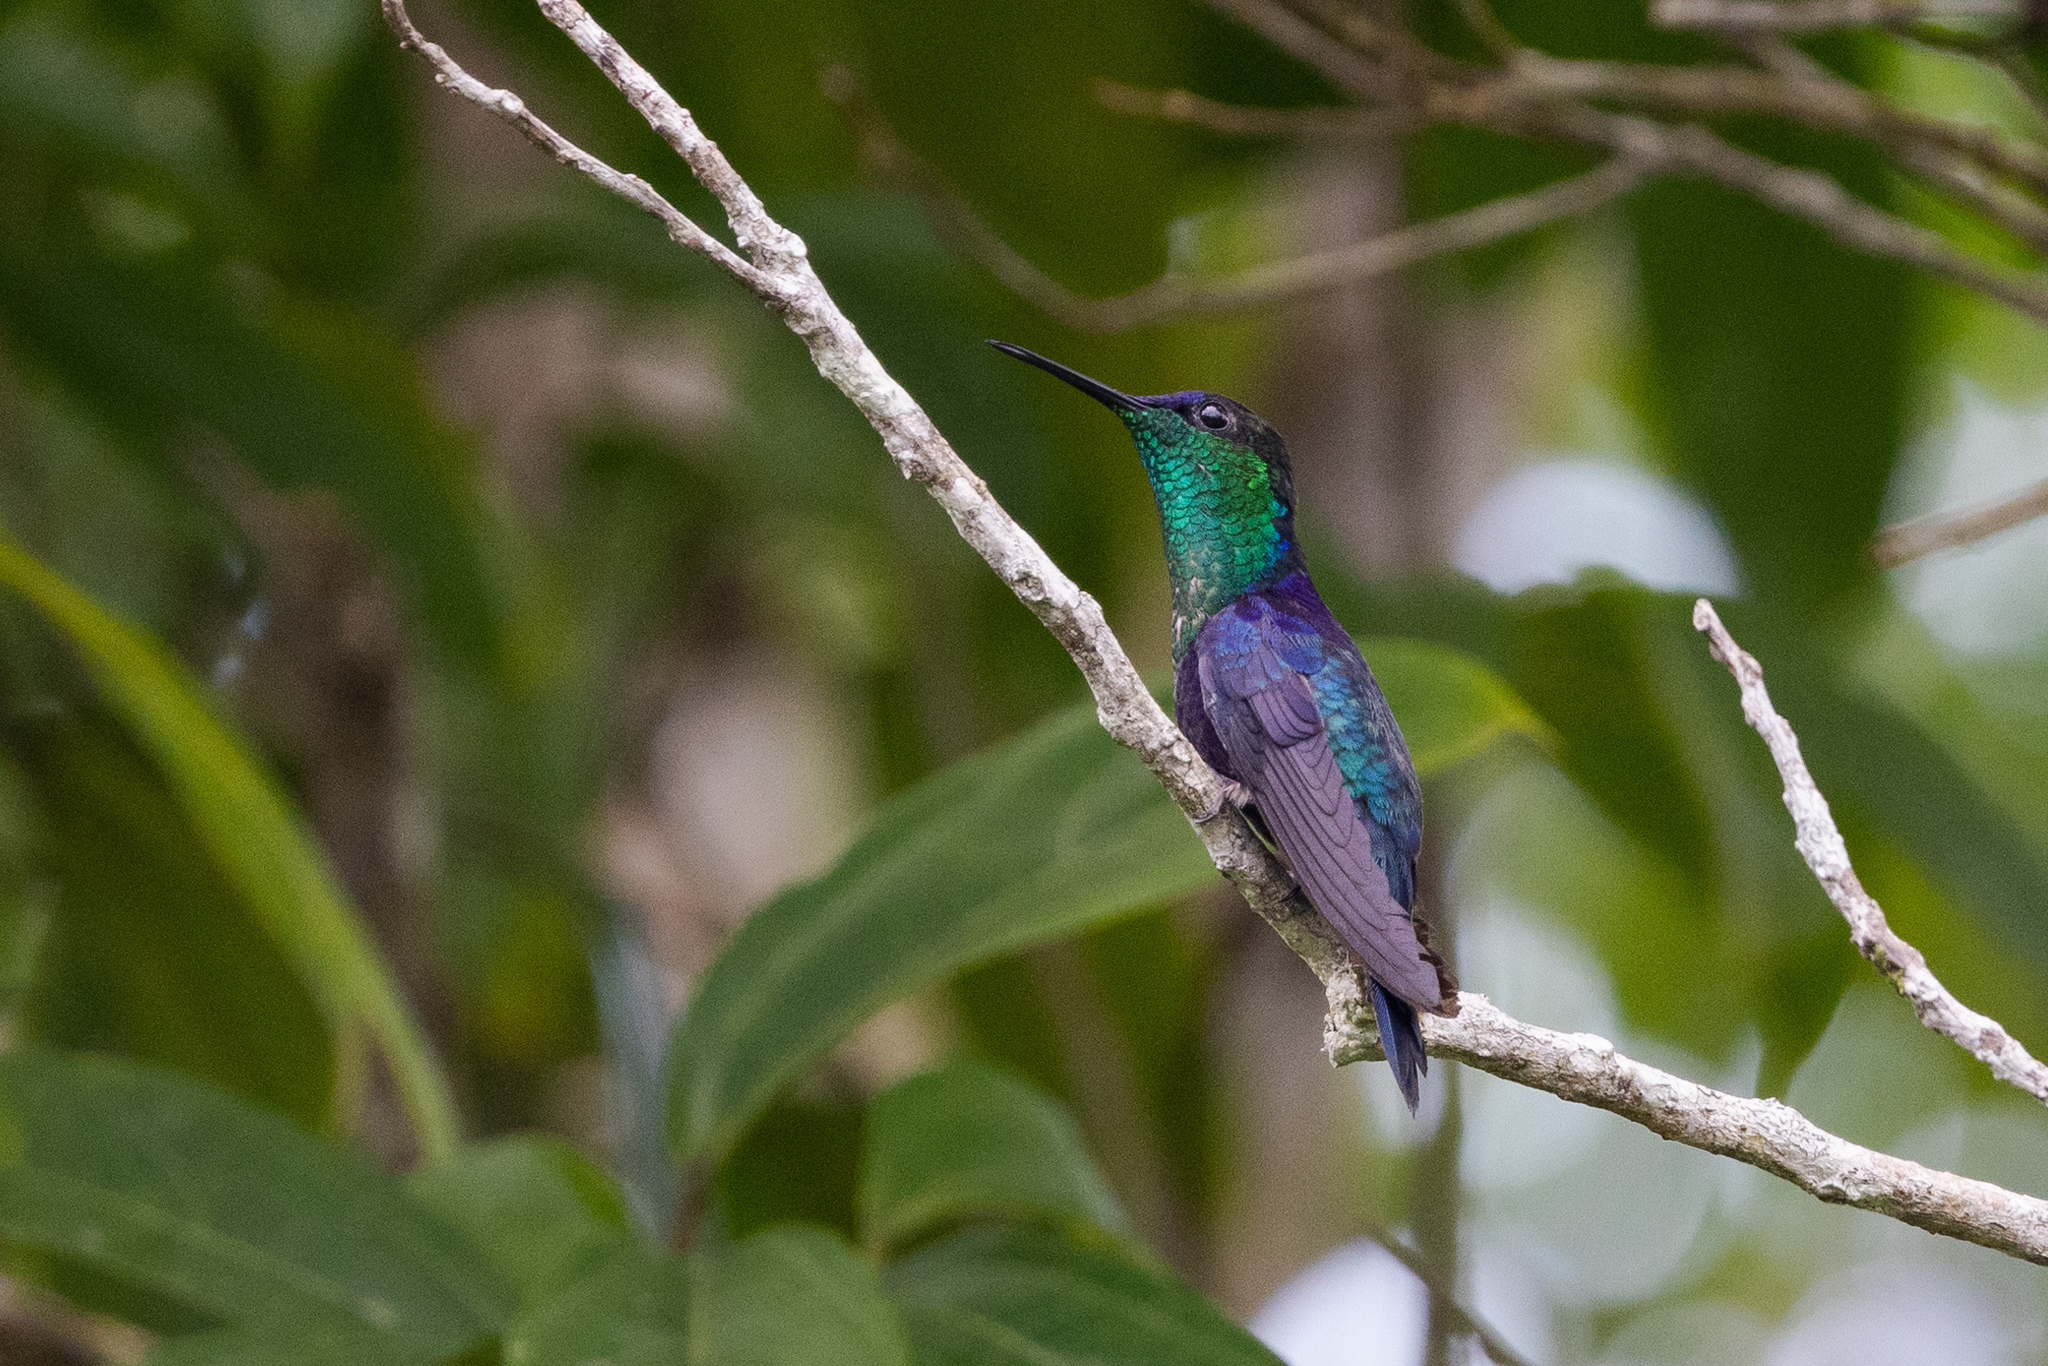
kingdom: Animalia
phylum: Chordata
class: Aves
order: Apodiformes
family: Trochilidae
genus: Thalurania
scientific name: Thalurania colombica
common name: Crowned woodnymph
